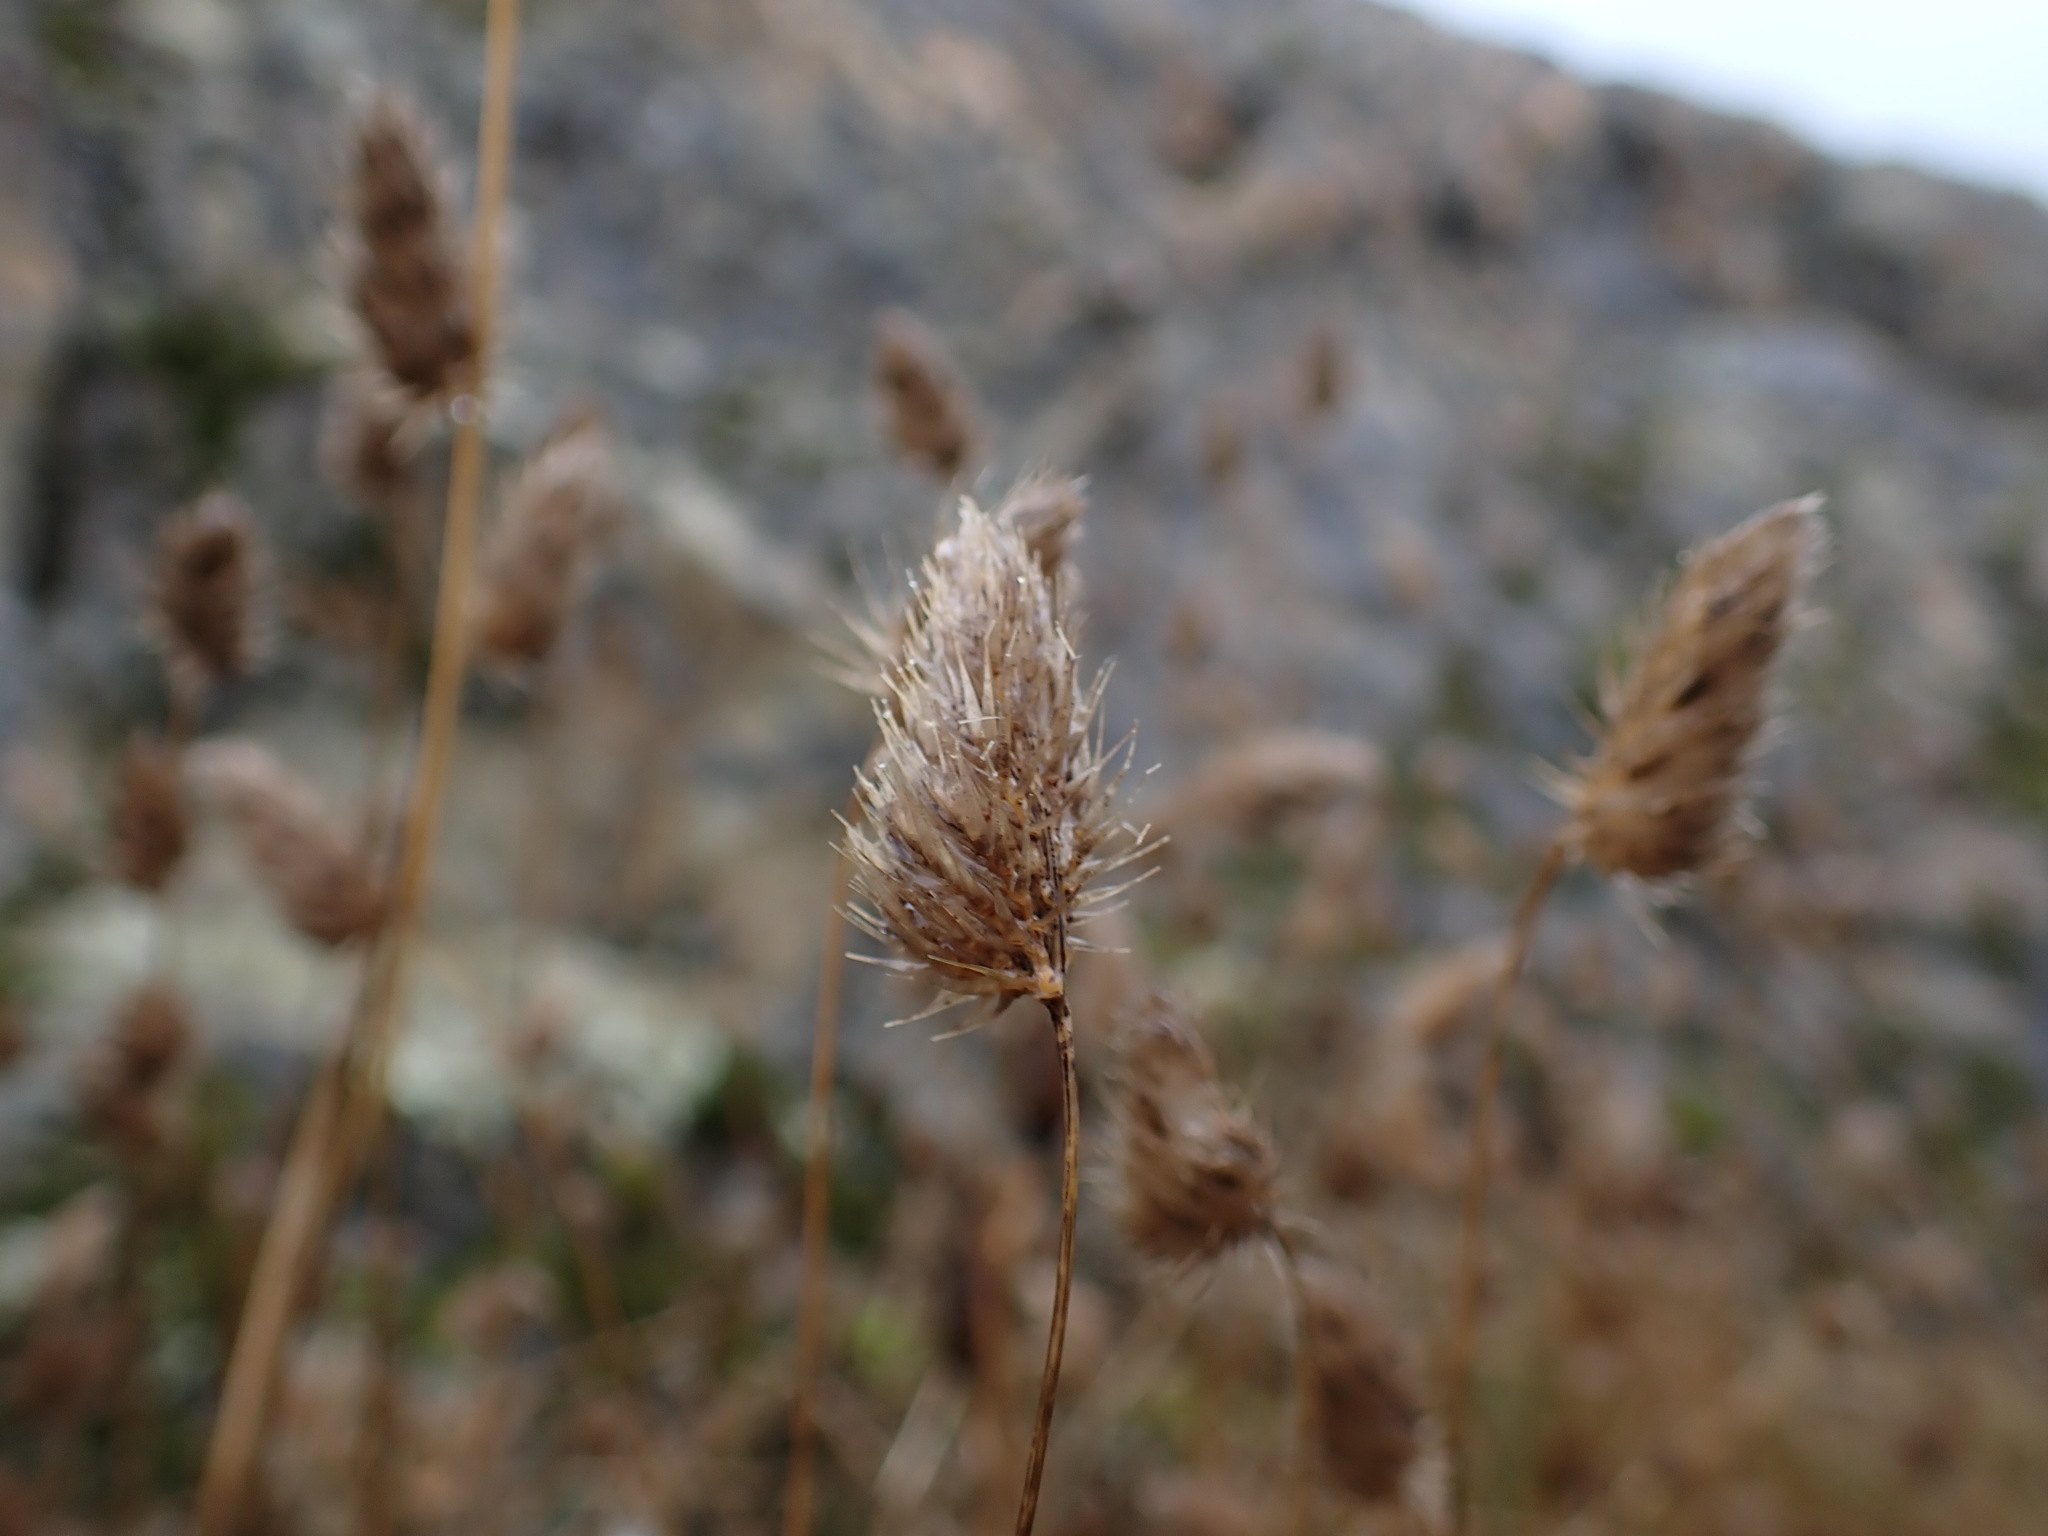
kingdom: Plantae
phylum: Tracheophyta
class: Liliopsida
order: Poales
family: Poaceae
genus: Cynosurus
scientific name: Cynosurus echinatus
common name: Rough dog's-tail
